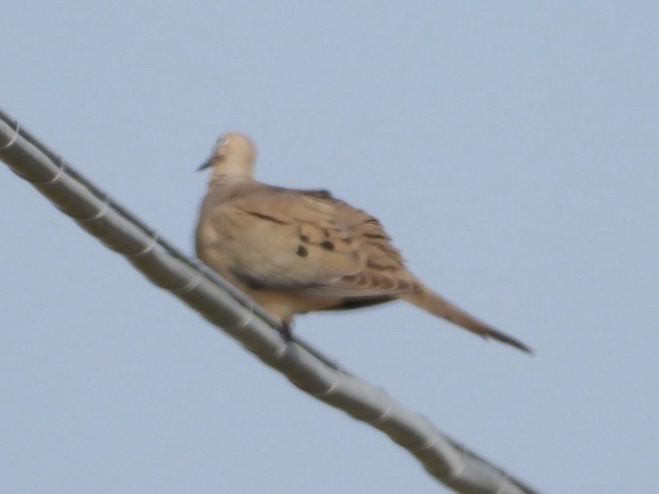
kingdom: Animalia
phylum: Chordata
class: Aves
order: Columbiformes
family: Columbidae
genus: Zenaida
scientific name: Zenaida macroura
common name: Mourning dove
